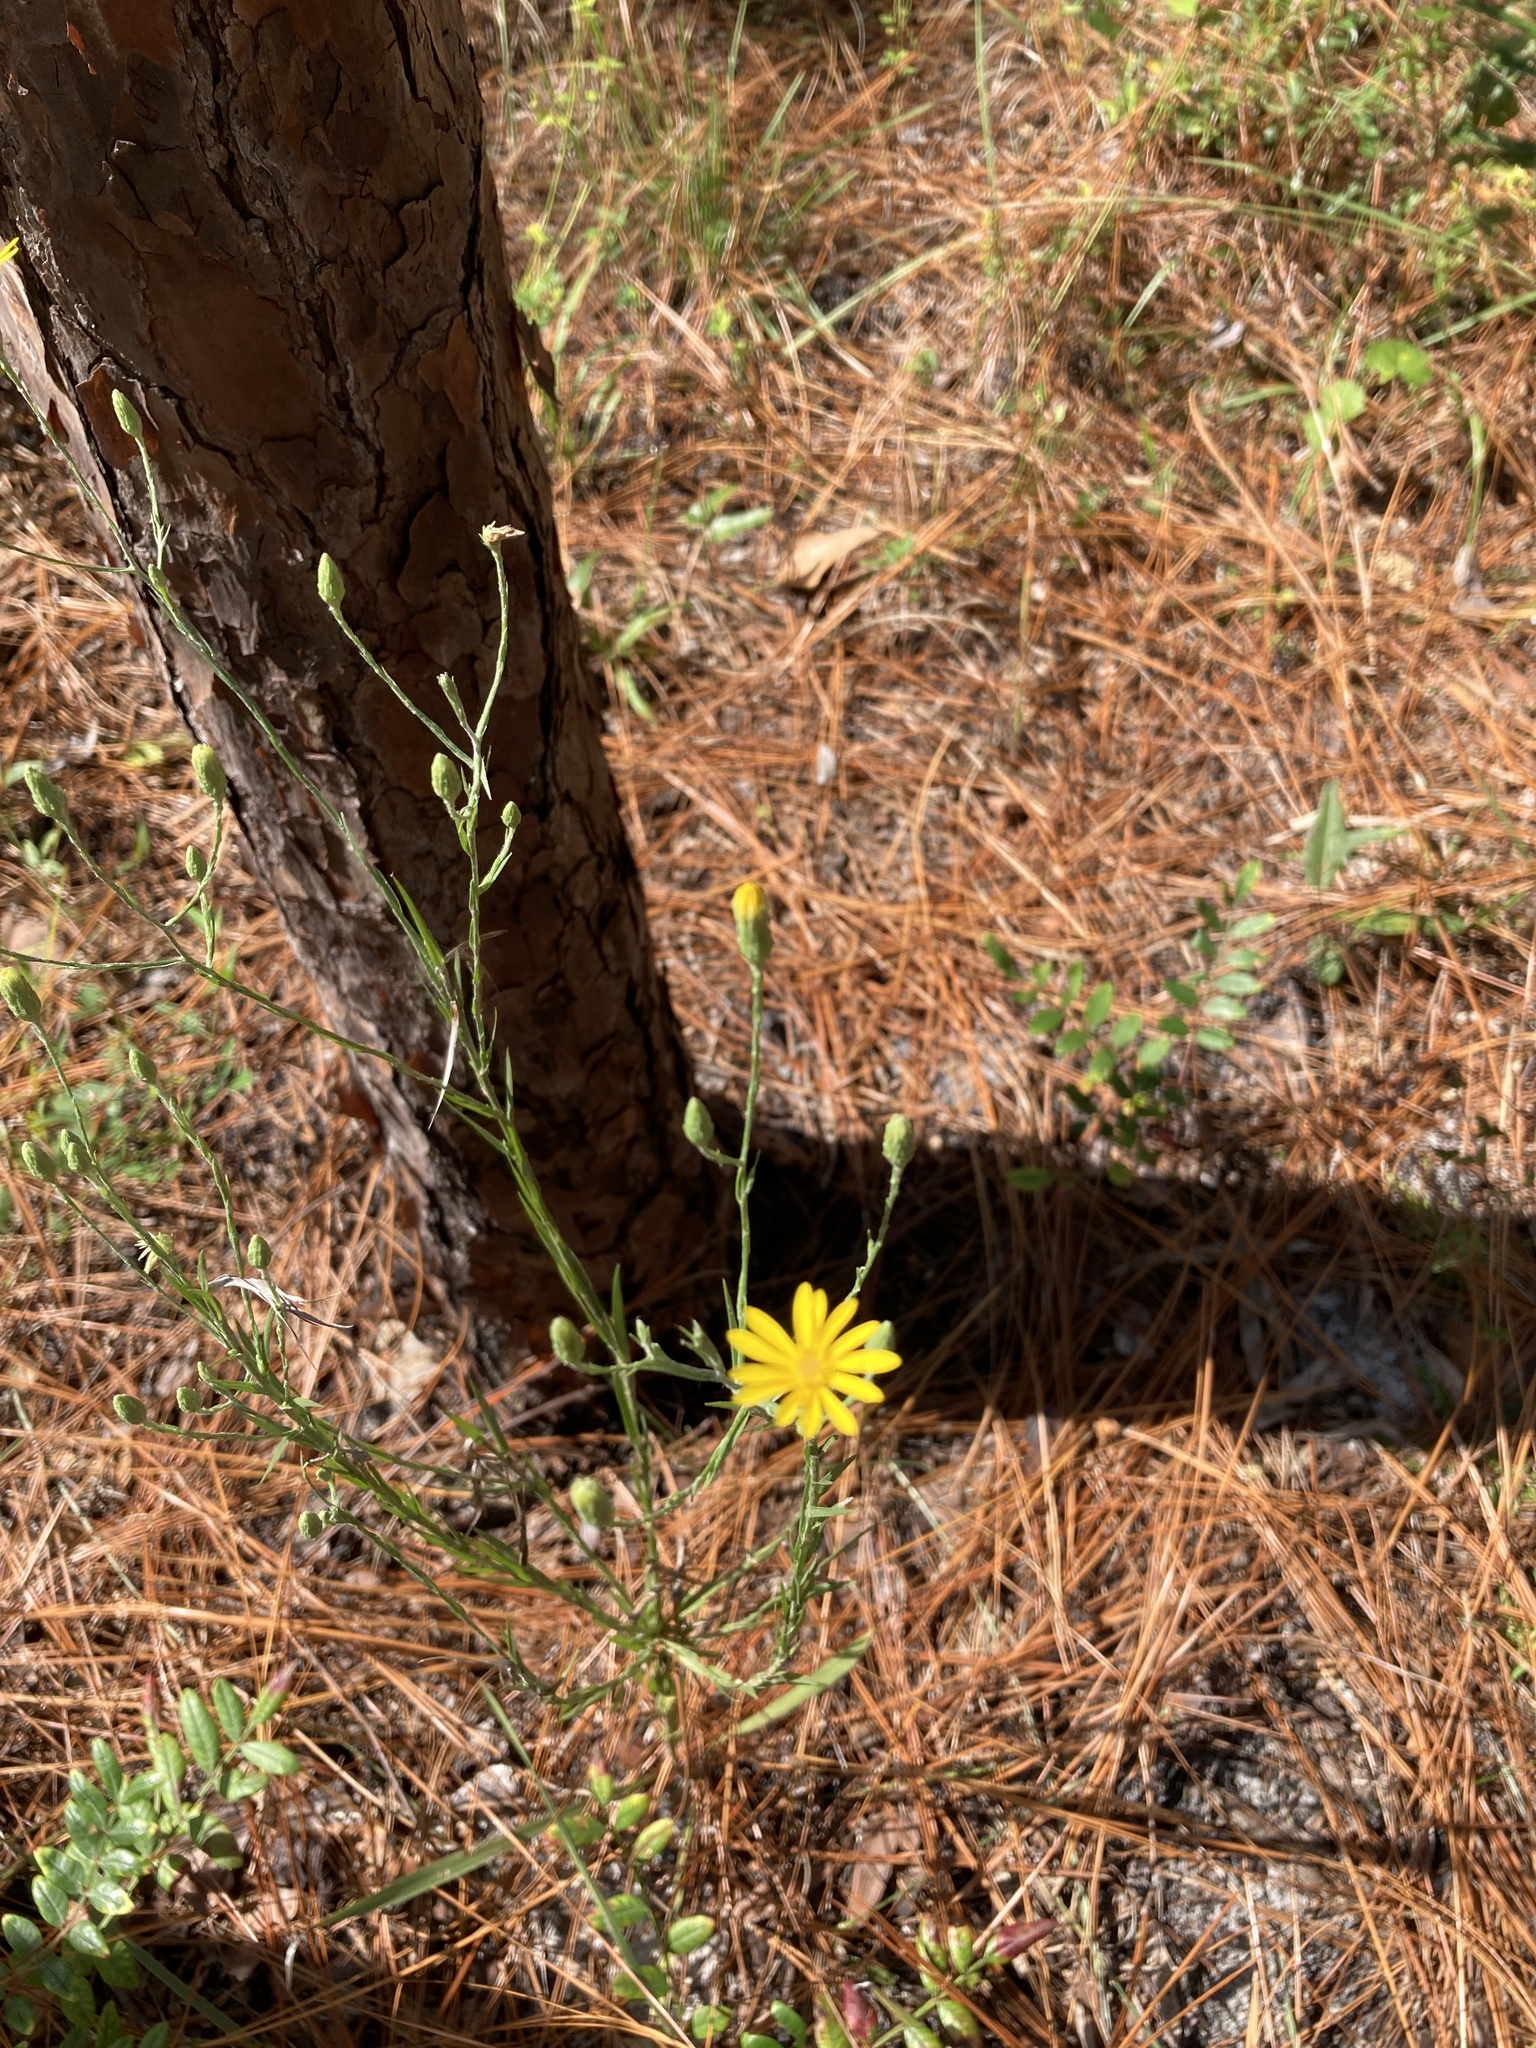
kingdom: Plantae
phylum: Tracheophyta
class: Magnoliopsida
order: Asterales
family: Asteraceae
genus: Pityopsis
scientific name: Pityopsis graminifolia
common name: Grass-leaf golden-aster
